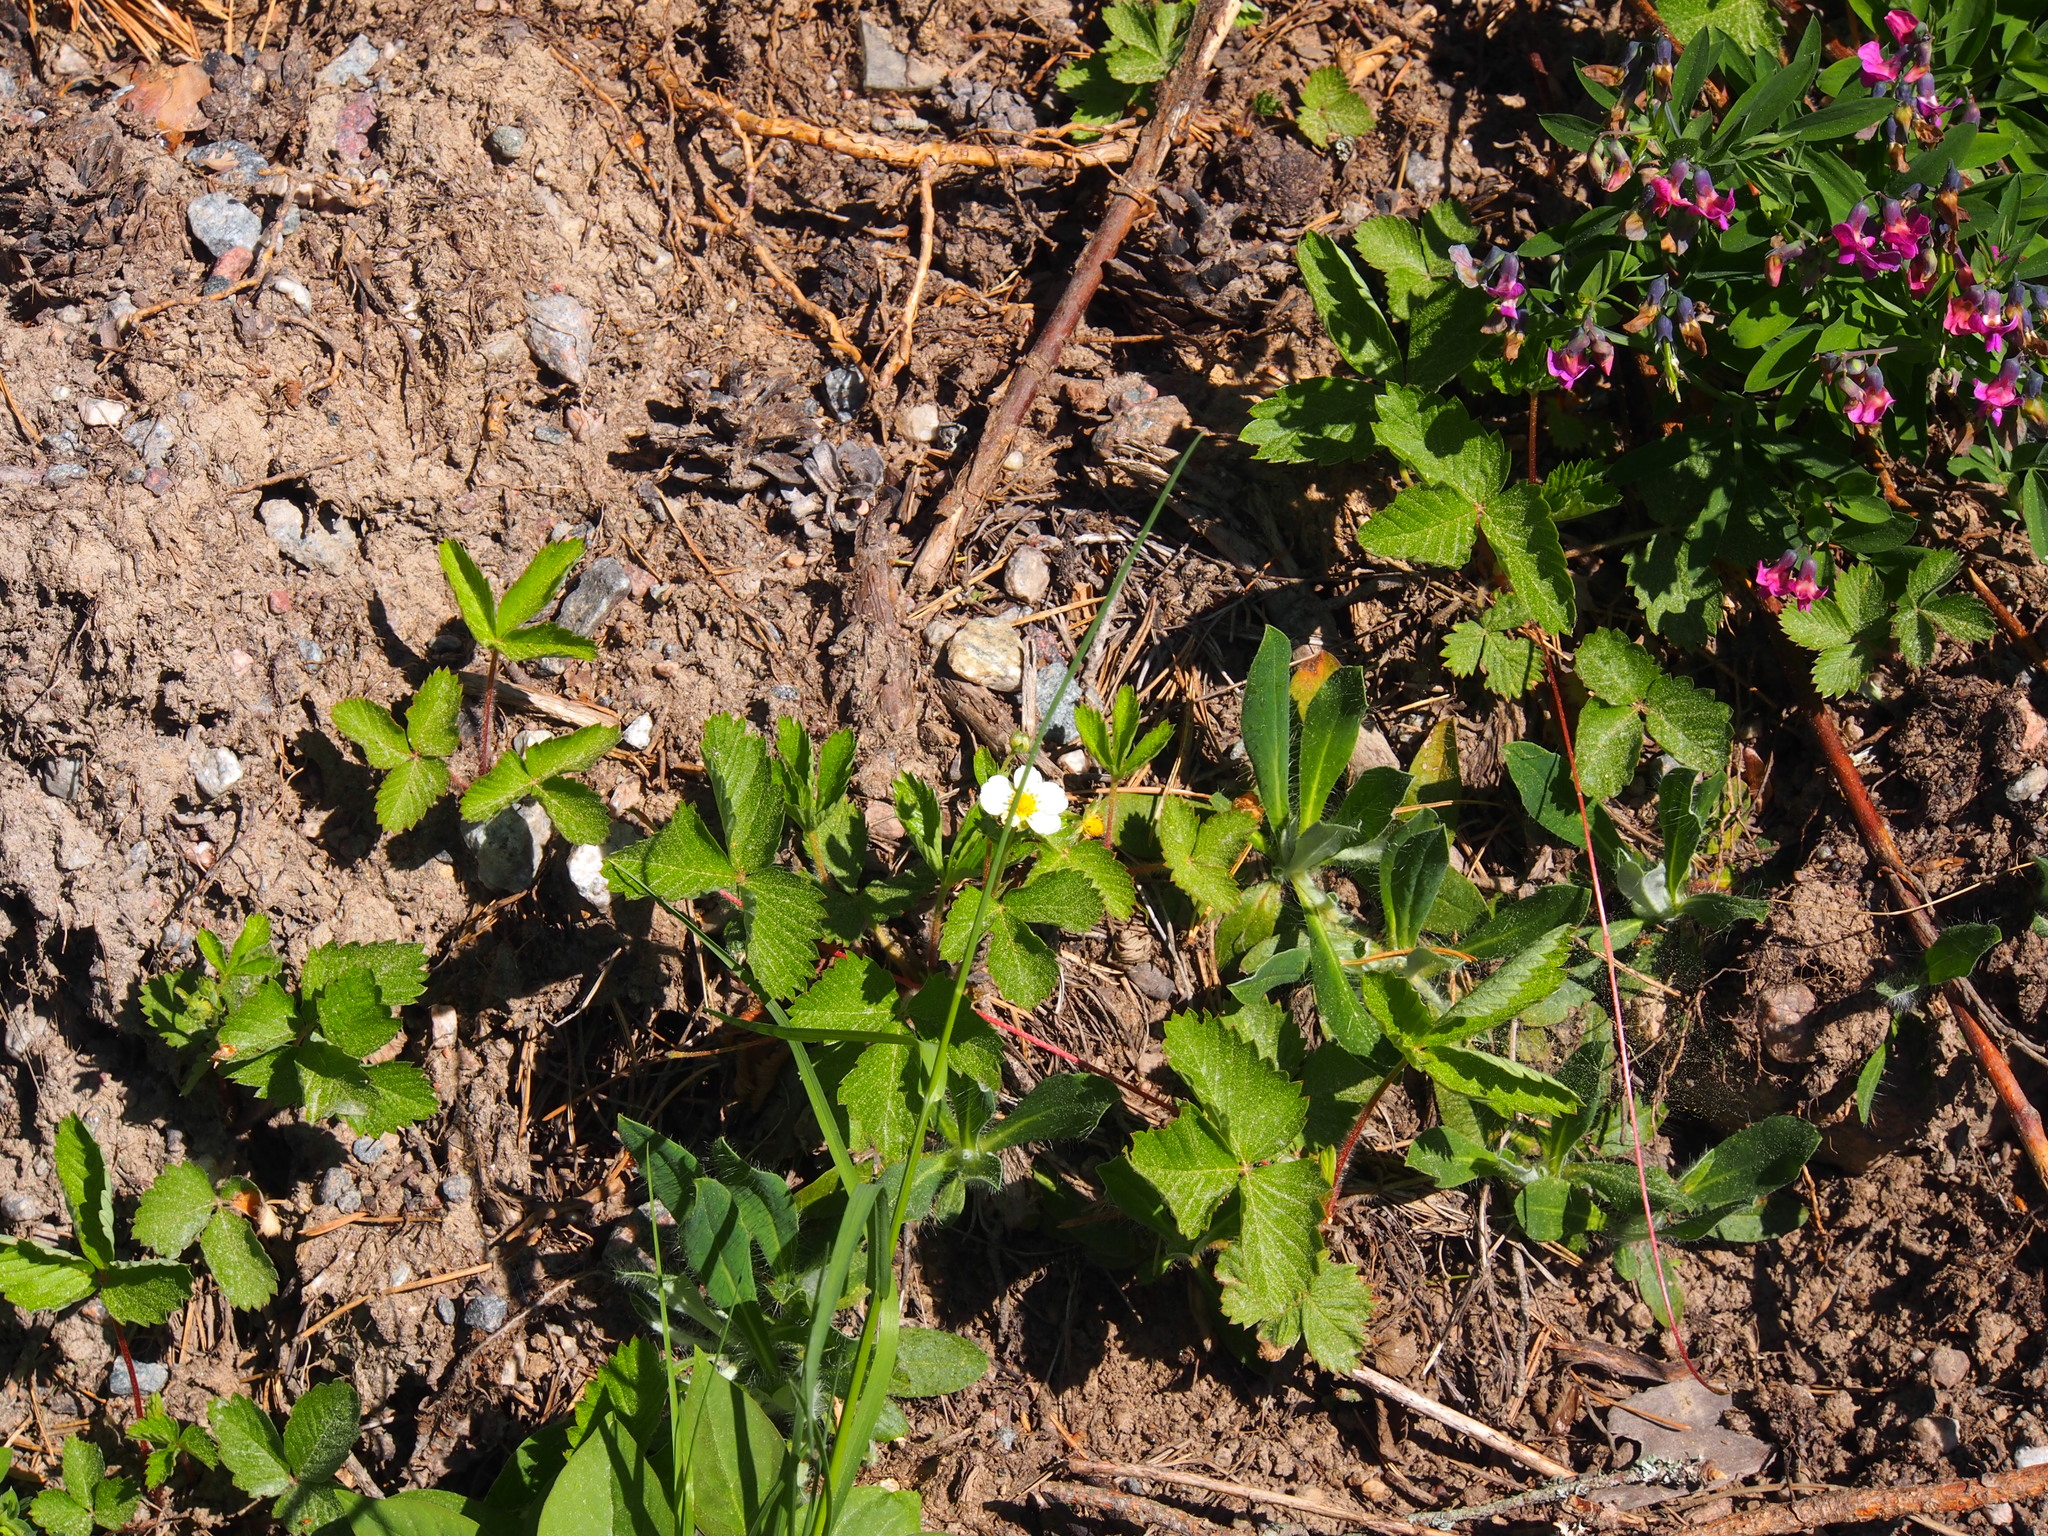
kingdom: Plantae
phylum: Tracheophyta
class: Magnoliopsida
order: Rosales
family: Rosaceae
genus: Fragaria
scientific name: Fragaria vesca
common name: Wild strawberry
